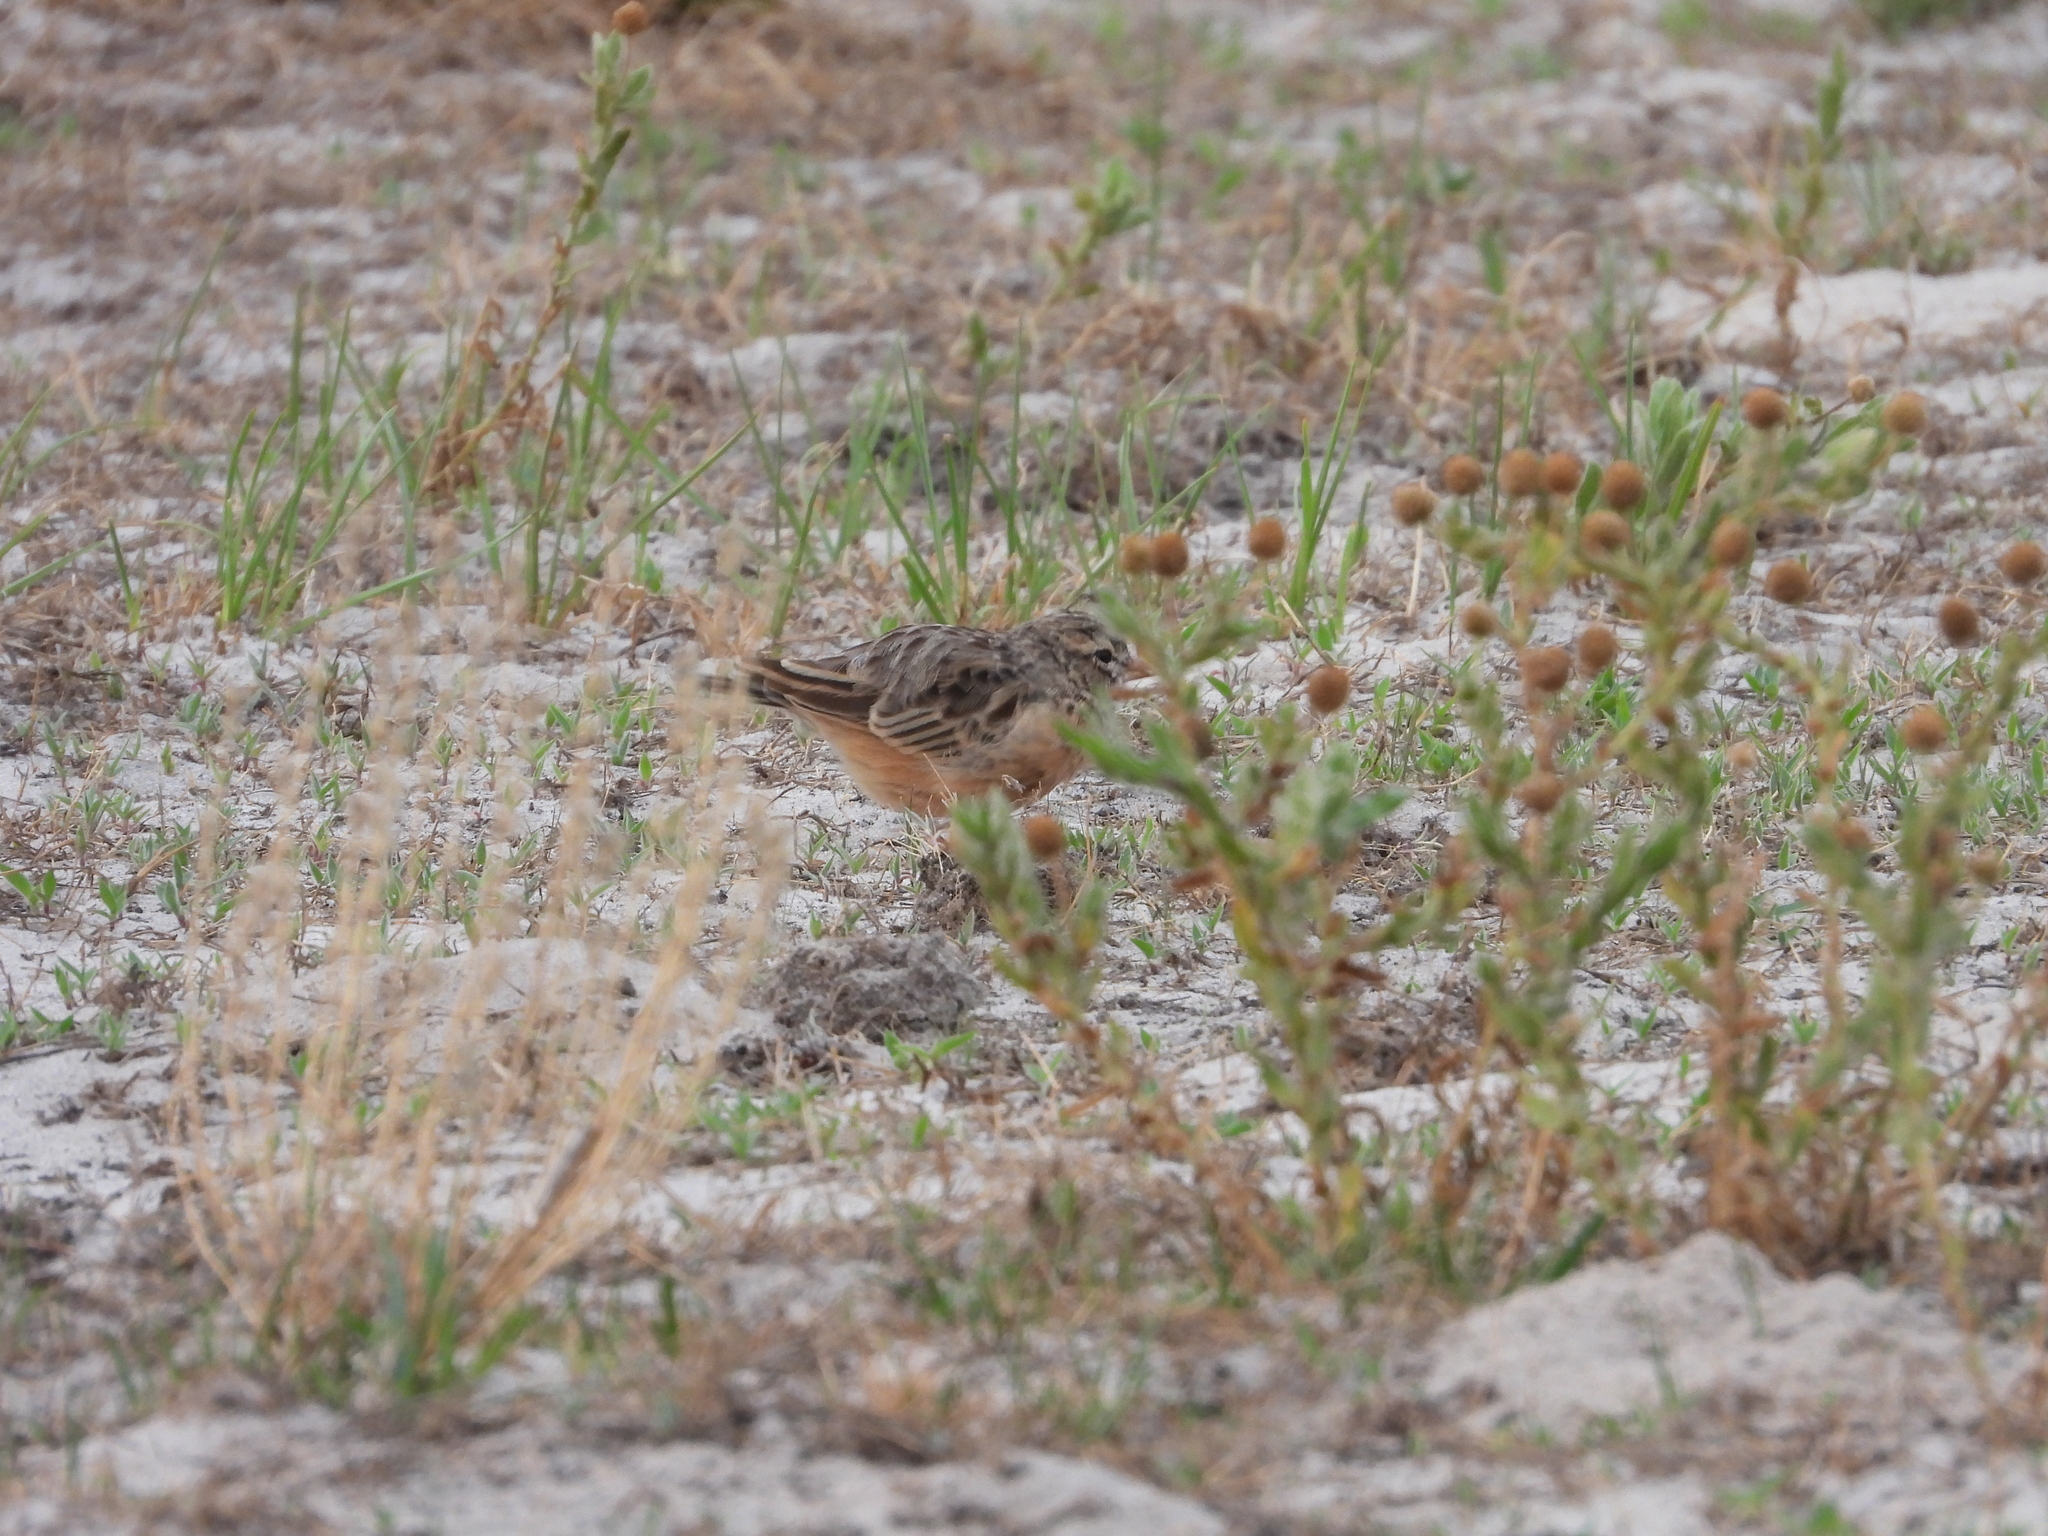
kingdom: Animalia
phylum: Chordata
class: Aves
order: Passeriformes
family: Alaudidae
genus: Spizocorys
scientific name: Spizocorys conirostris
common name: Pink-billed lark
